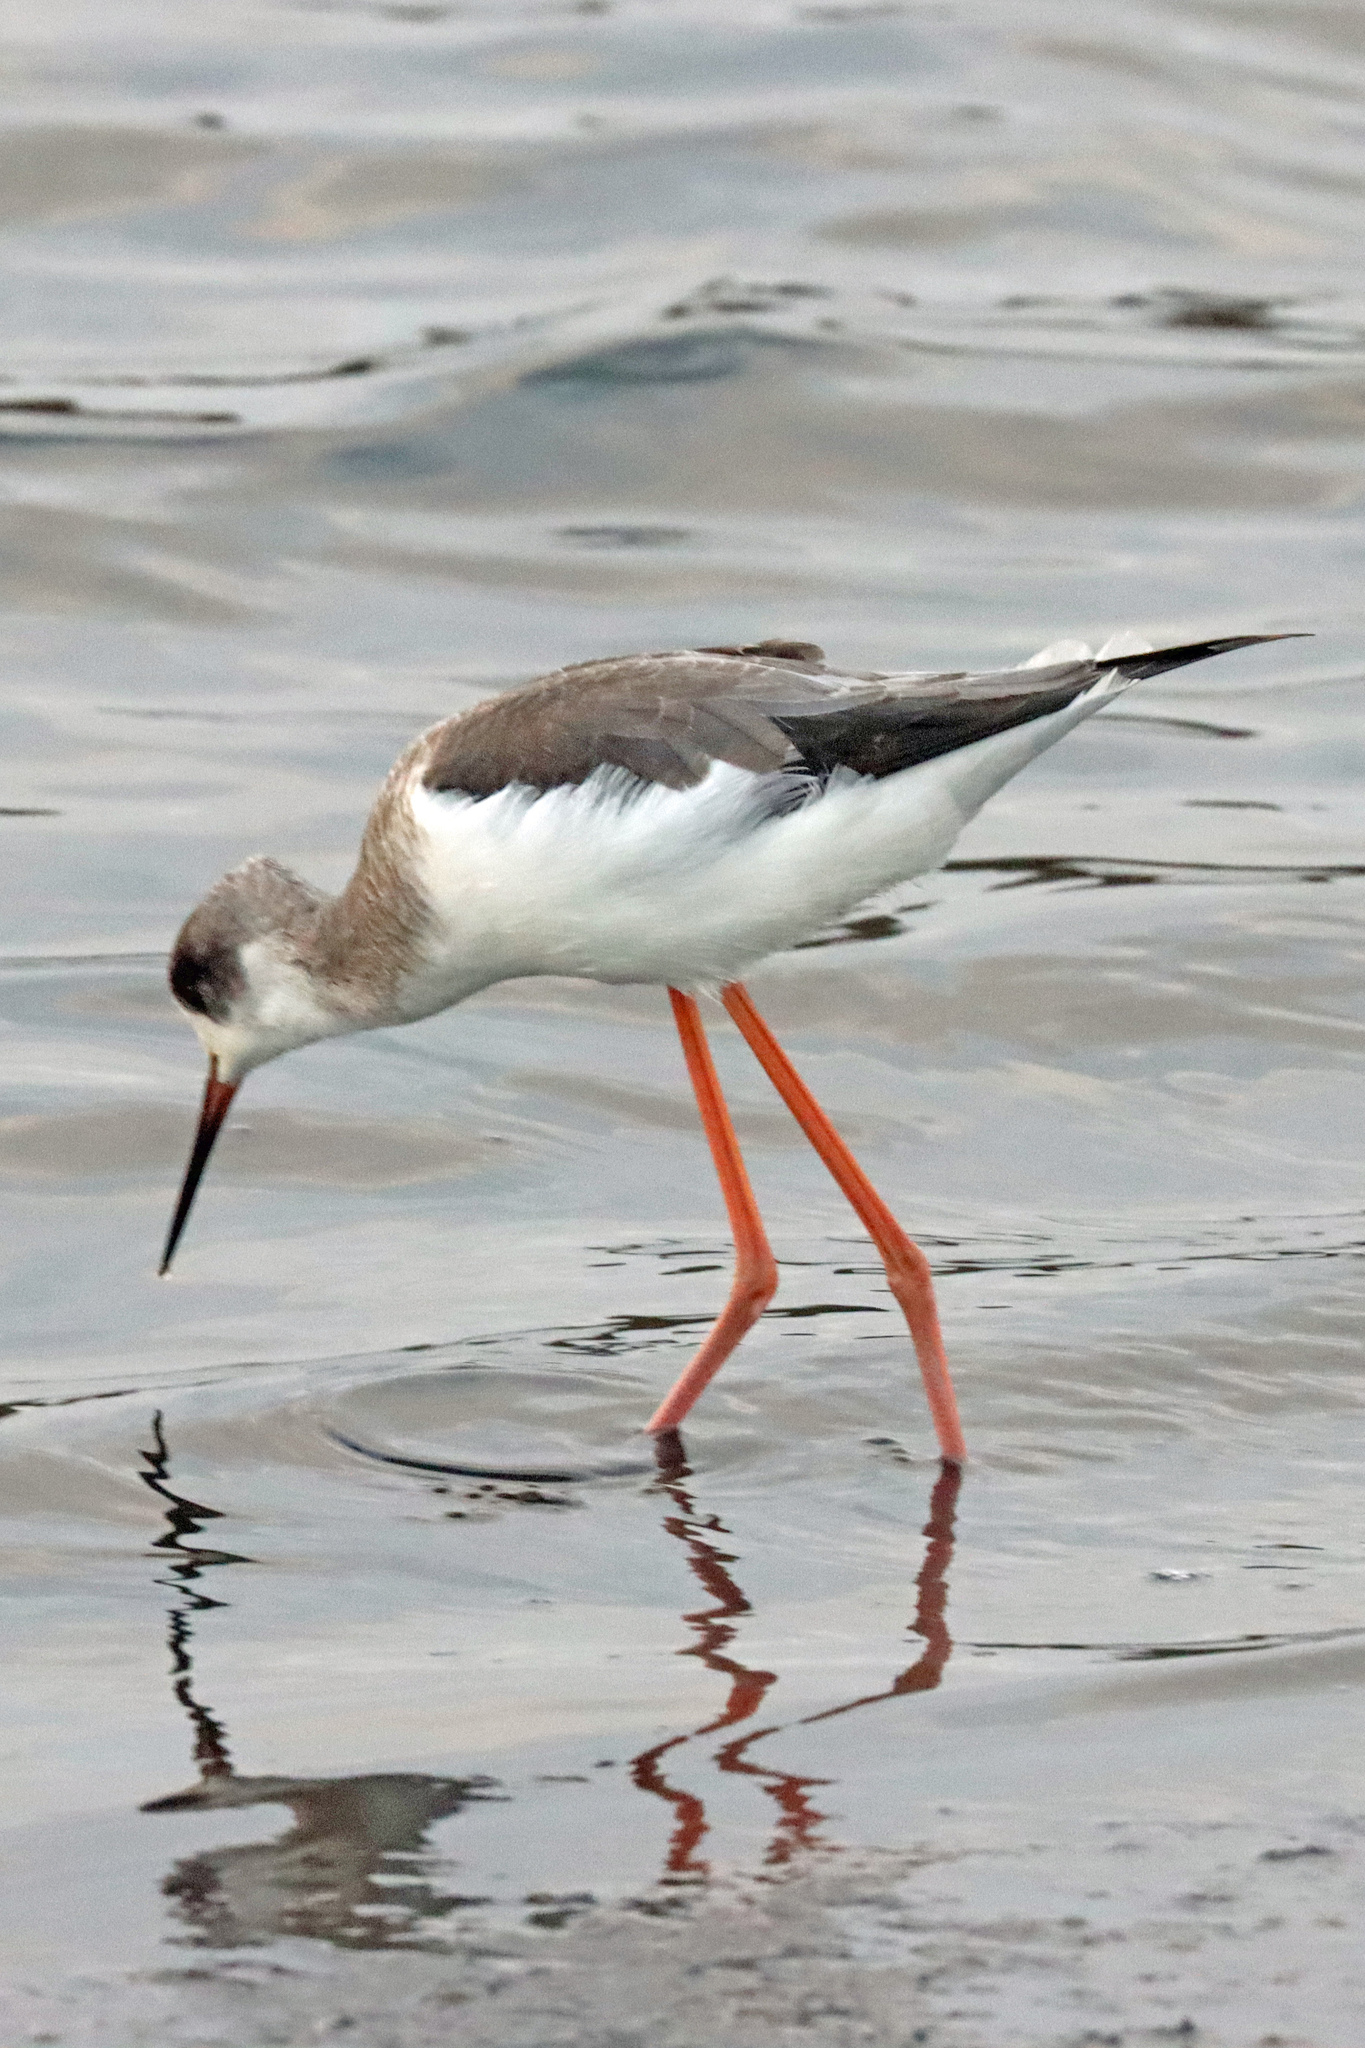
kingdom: Animalia
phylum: Chordata
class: Aves
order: Charadriiformes
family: Recurvirostridae
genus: Himantopus
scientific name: Himantopus himantopus
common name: Black-winged stilt
